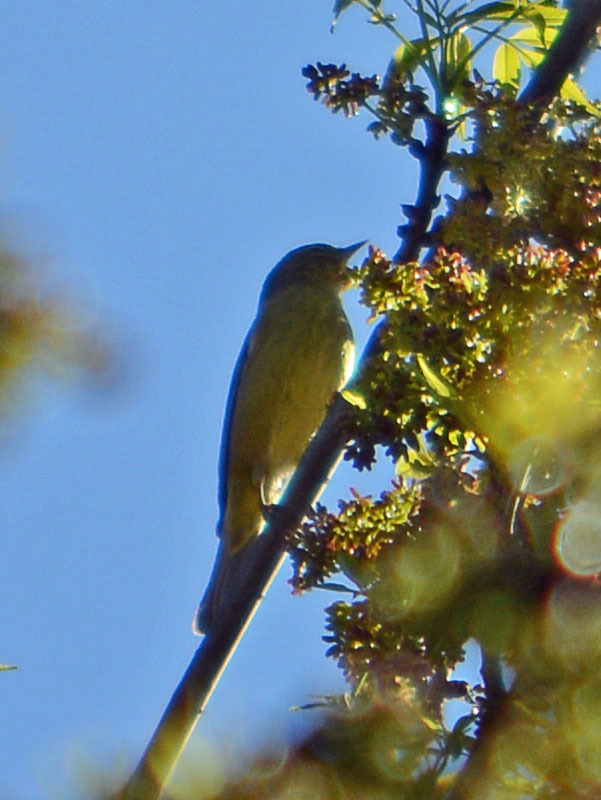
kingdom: Animalia
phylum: Chordata
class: Aves
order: Passeriformes
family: Parulidae
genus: Leiothlypis
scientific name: Leiothlypis celata
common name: Orange-crowned warbler
